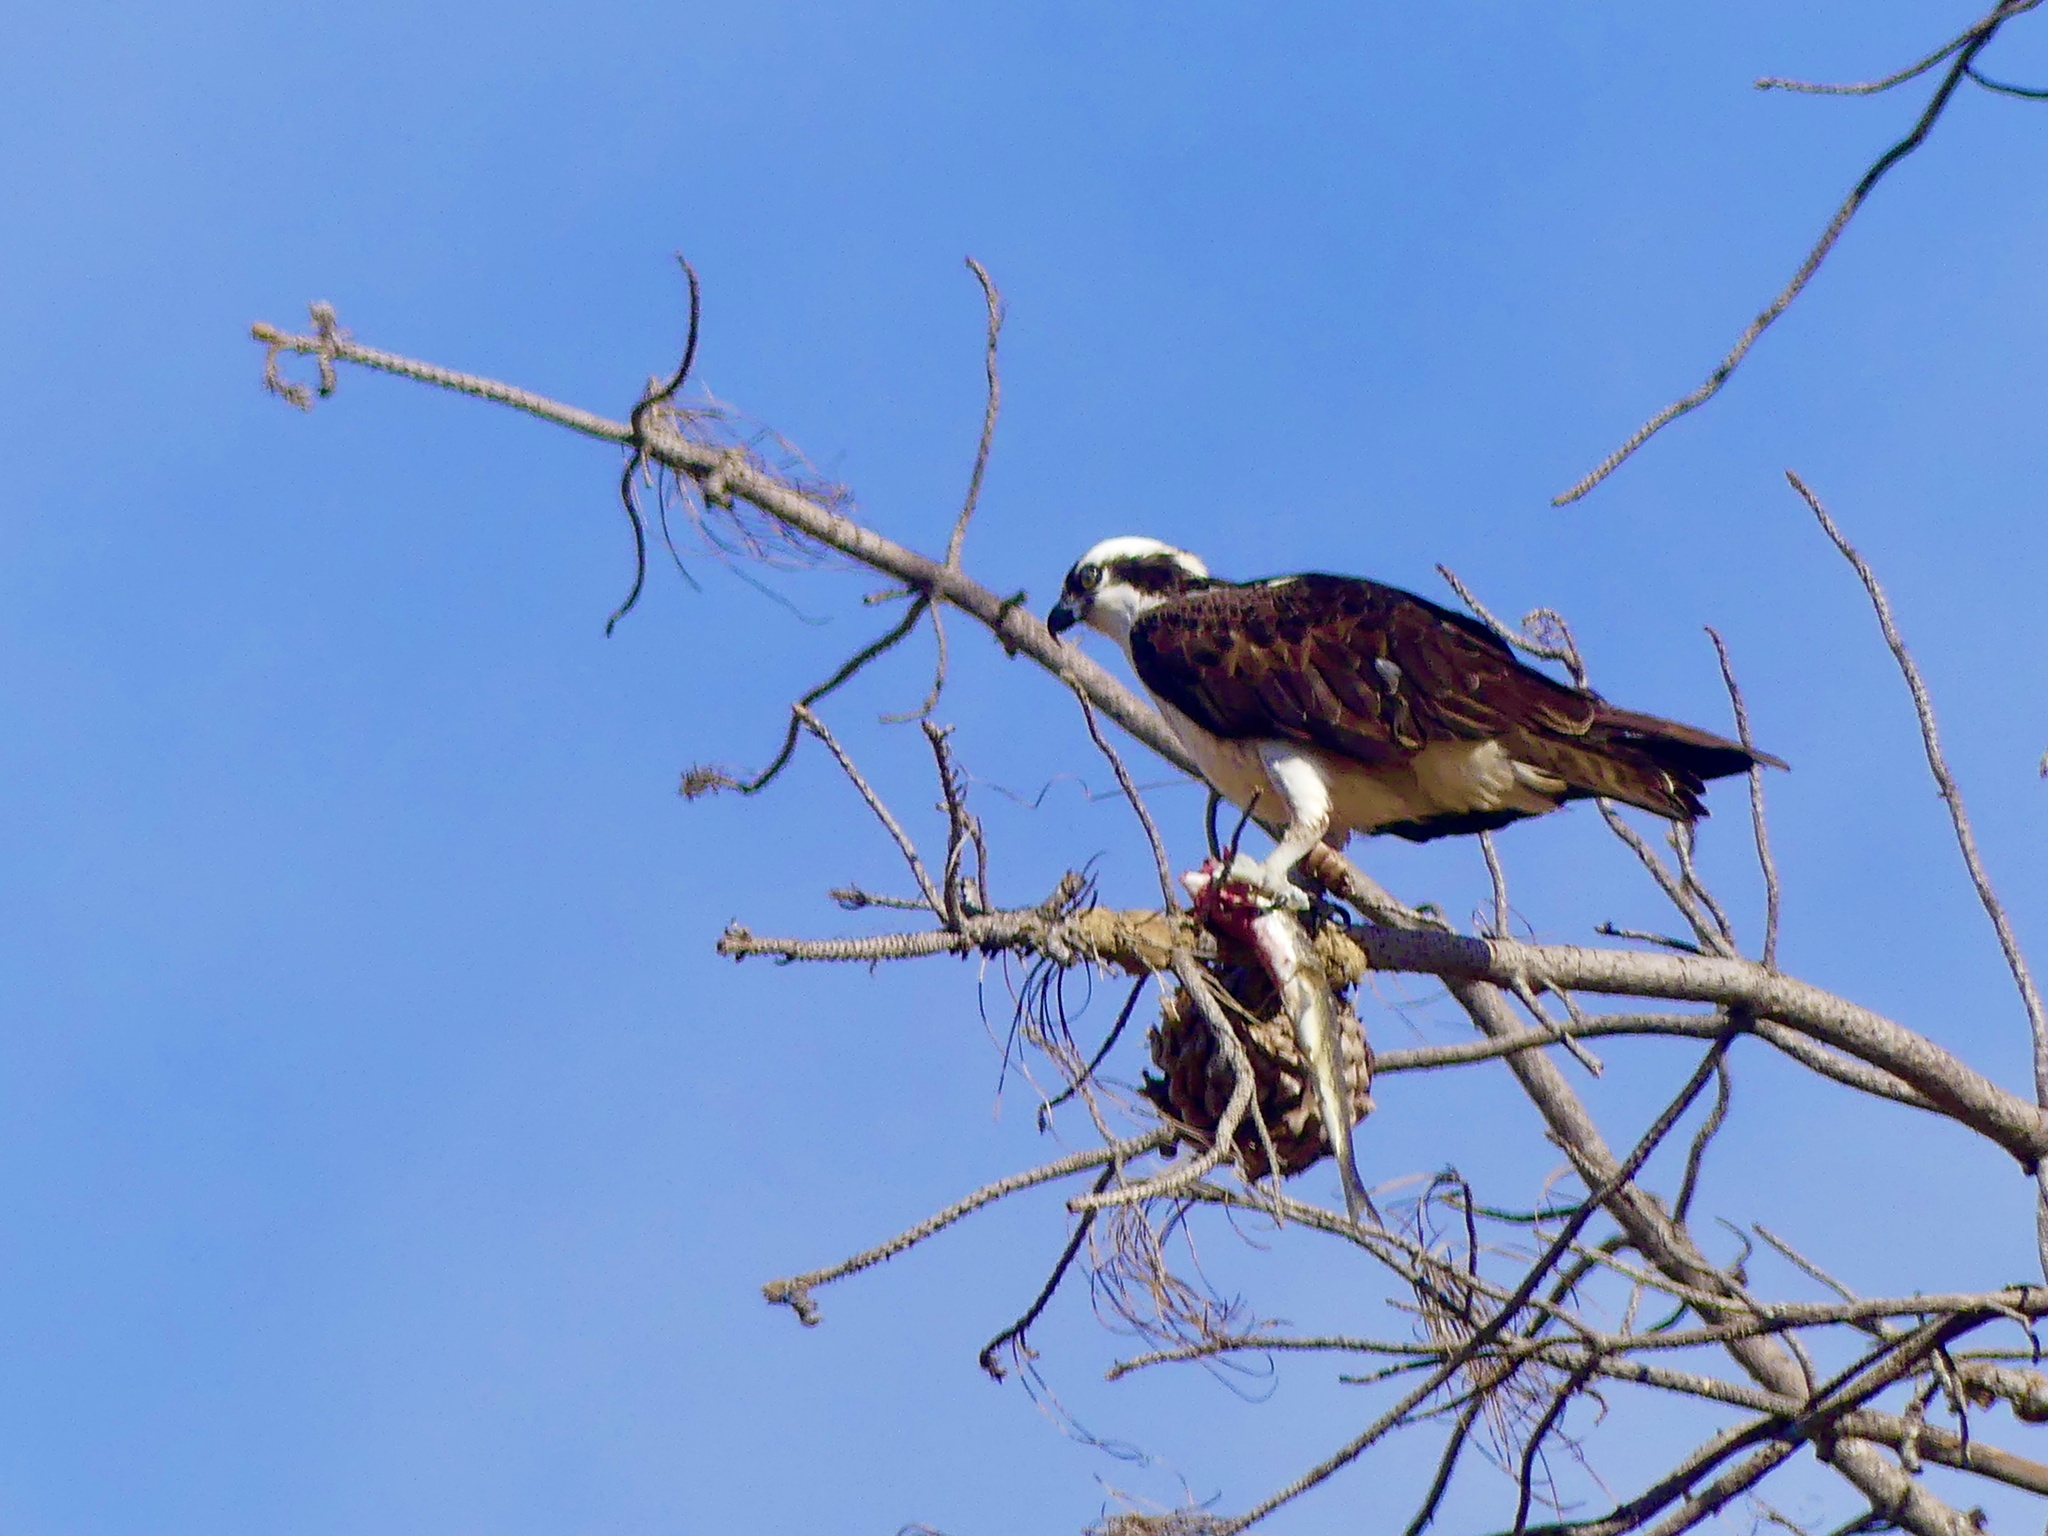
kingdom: Animalia
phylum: Chordata
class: Aves
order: Accipitriformes
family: Pandionidae
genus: Pandion
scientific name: Pandion haliaetus
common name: Osprey
